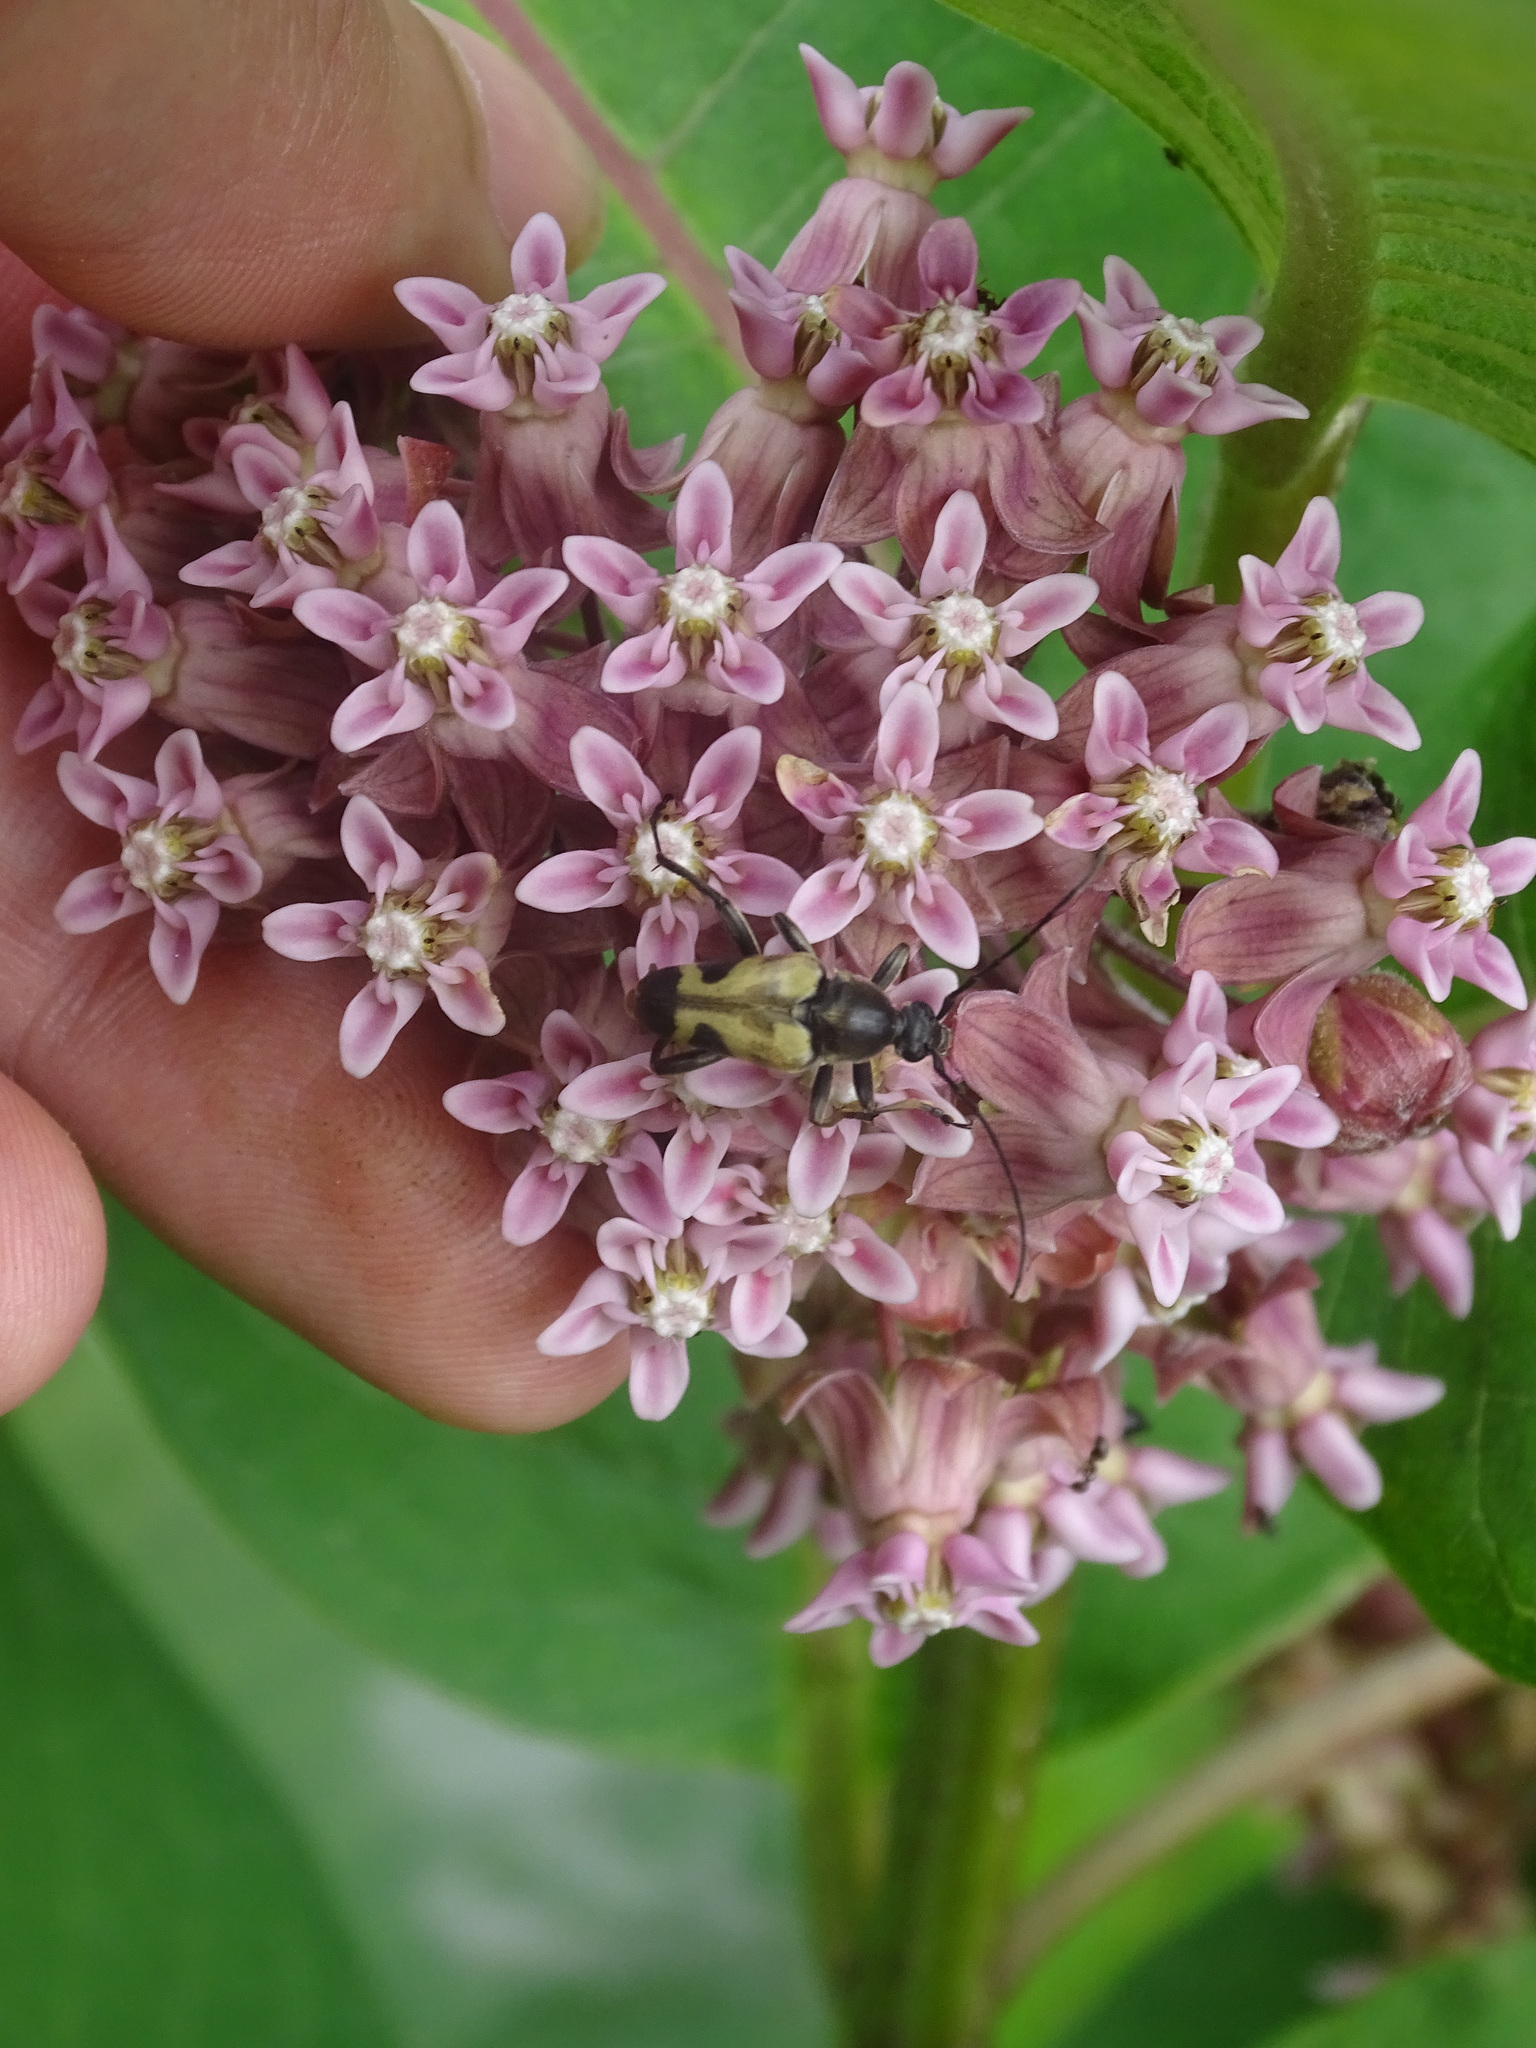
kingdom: Animalia
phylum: Arthropoda
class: Insecta
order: Coleoptera
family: Cerambycidae
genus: Judolia
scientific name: Judolia cordifera
